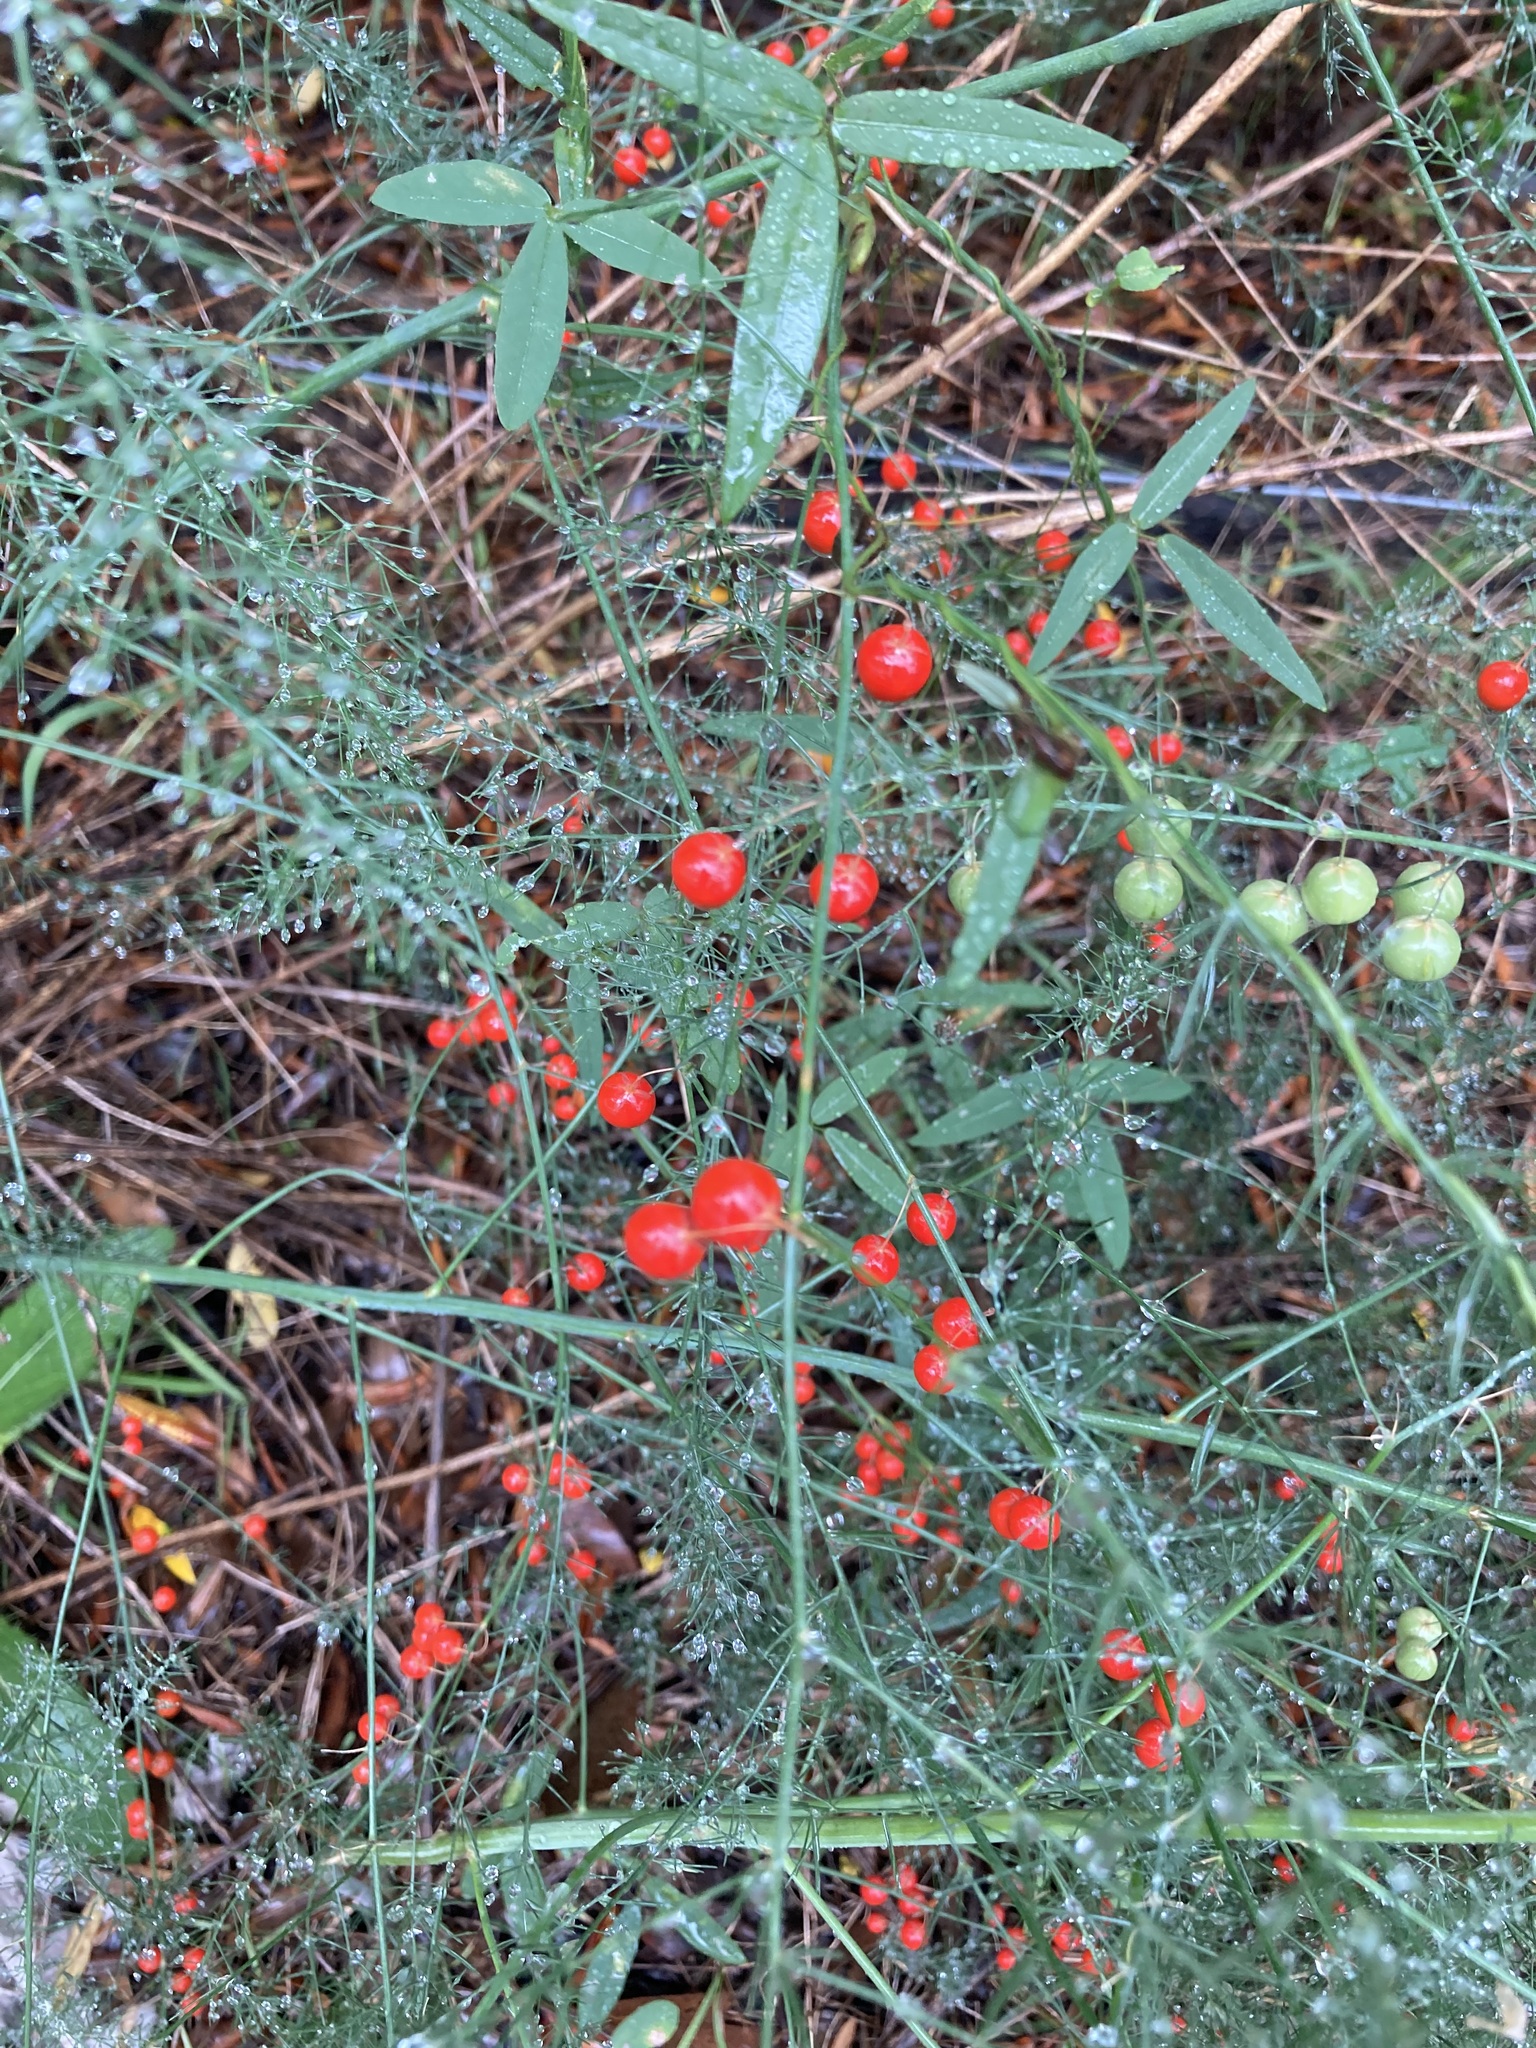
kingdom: Plantae
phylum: Tracheophyta
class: Liliopsida
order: Asparagales
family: Asparagaceae
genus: Asparagus
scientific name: Asparagus officinalis
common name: Garden asparagus
